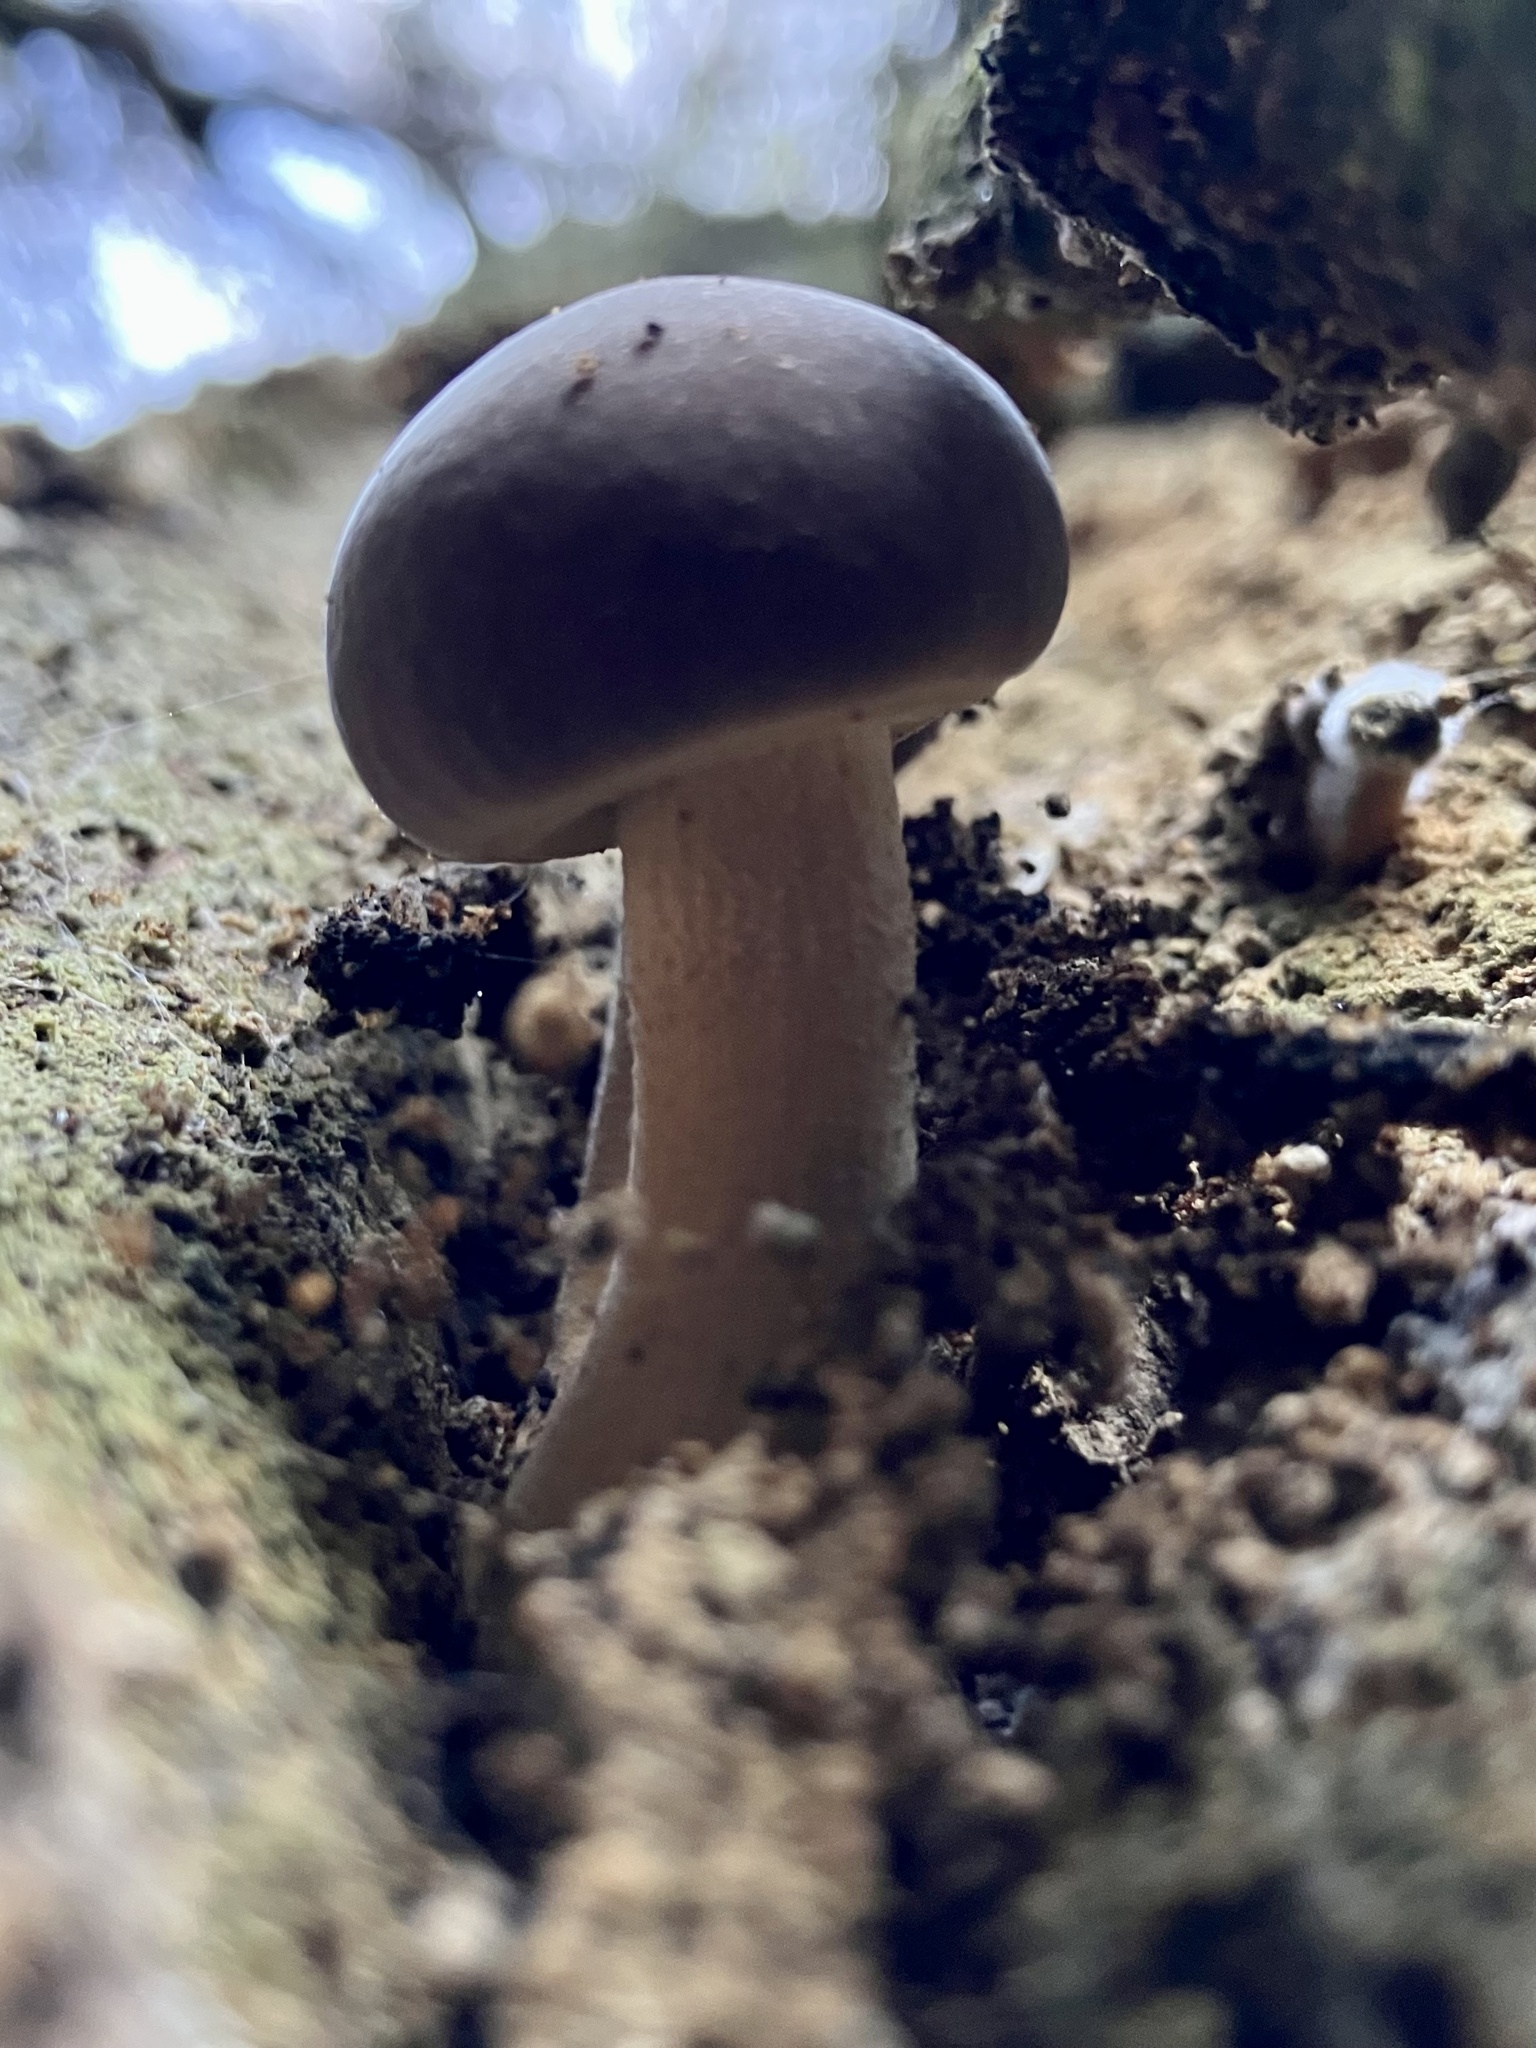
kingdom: Fungi
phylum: Basidiomycota
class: Agaricomycetes
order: Agaricales
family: Tubariaceae
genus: Cyclocybe
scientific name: Cyclocybe parasitica
